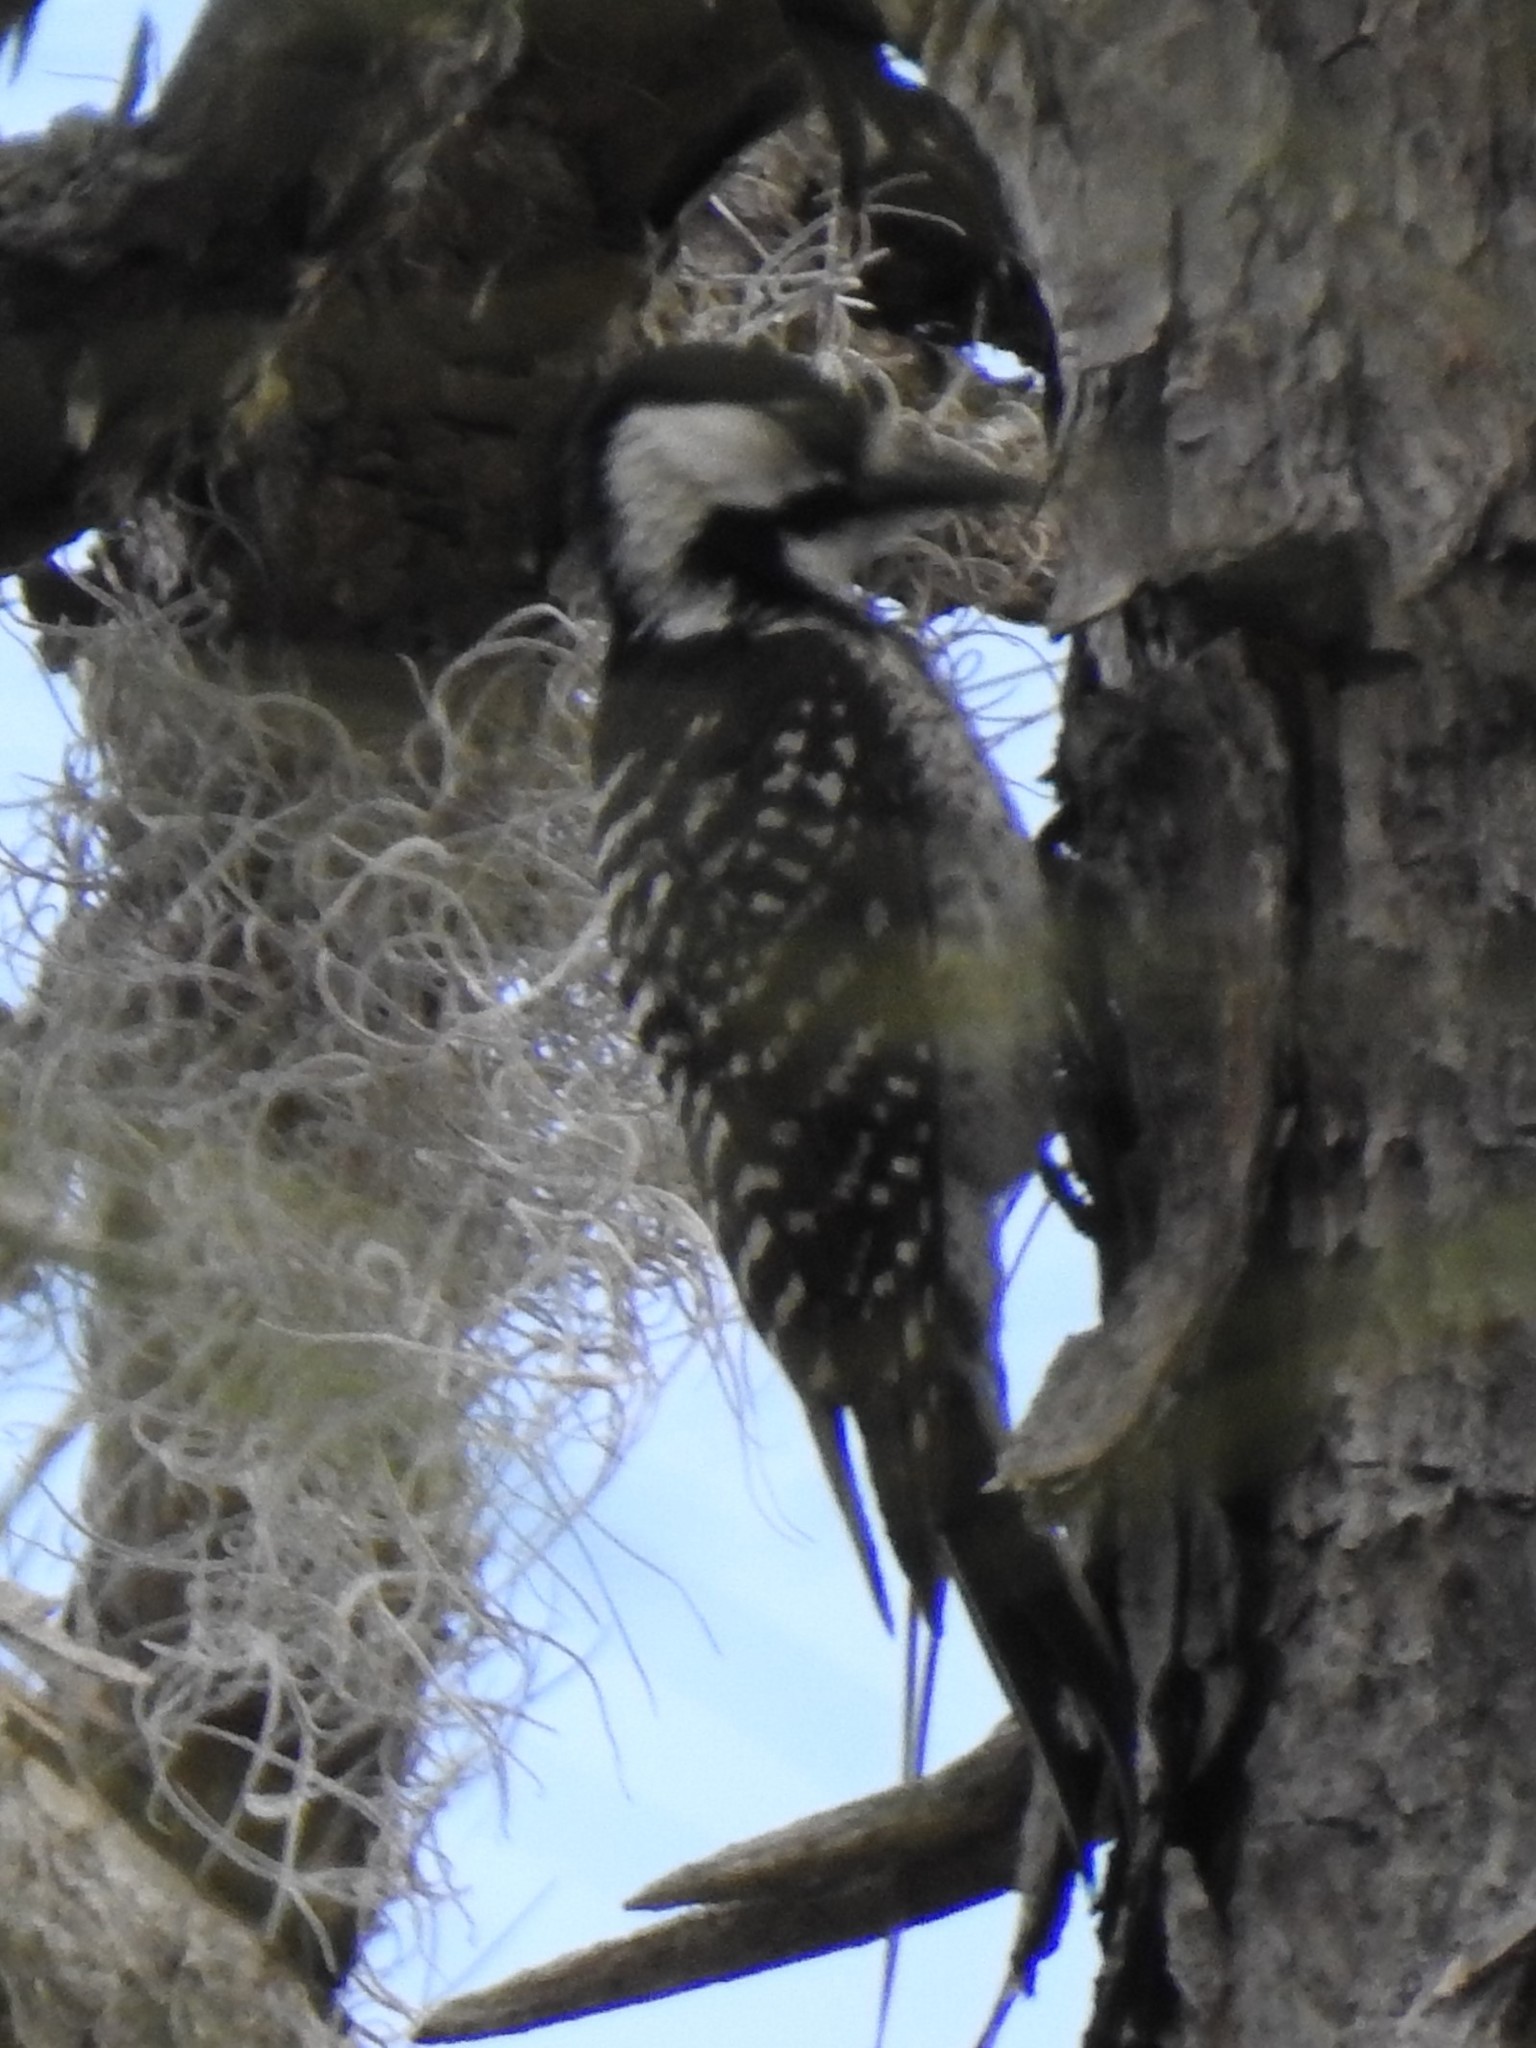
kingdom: Animalia
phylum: Chordata
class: Aves
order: Piciformes
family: Picidae
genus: Leuconotopicus
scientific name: Leuconotopicus borealis
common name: Red-cockaded woodpecker
